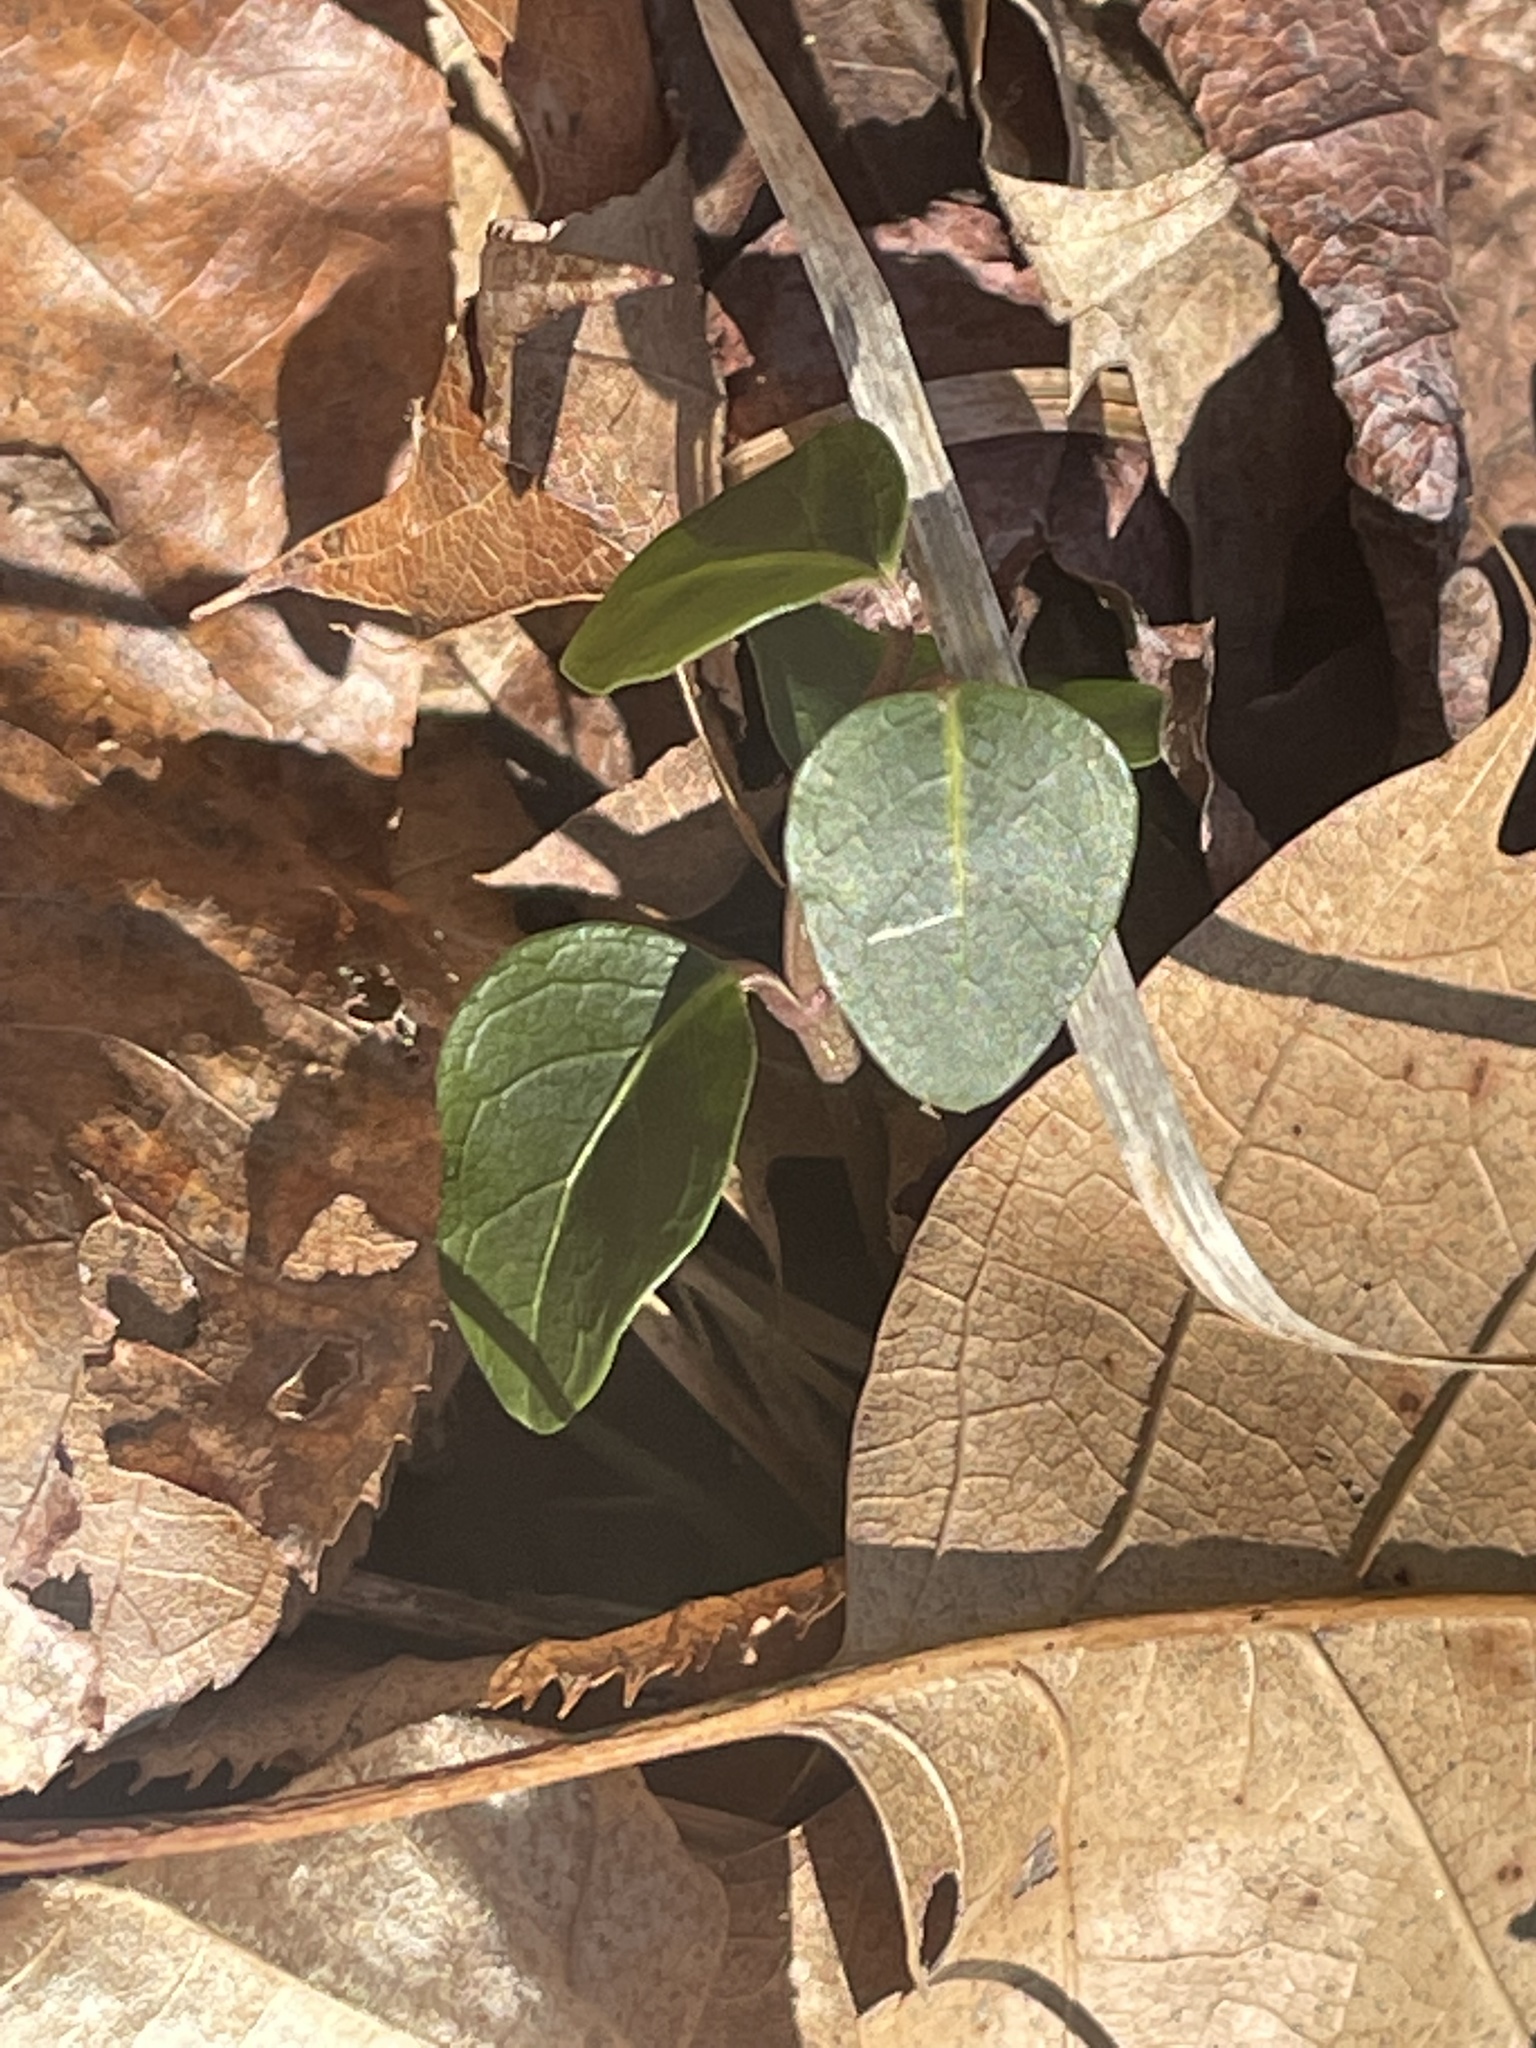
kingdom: Plantae
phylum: Tracheophyta
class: Magnoliopsida
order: Gentianales
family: Rubiaceae
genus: Mitchella
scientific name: Mitchella repens
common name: Partridge-berry
